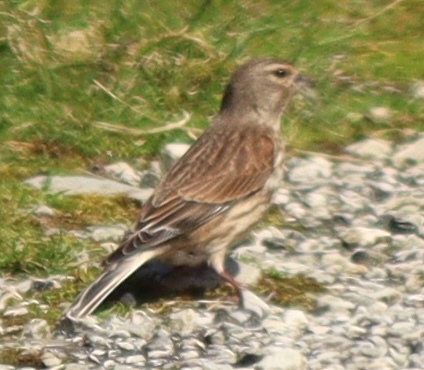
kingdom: Animalia
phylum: Chordata
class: Aves
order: Passeriformes
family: Fringillidae
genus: Linaria
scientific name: Linaria cannabina
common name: Common linnet
